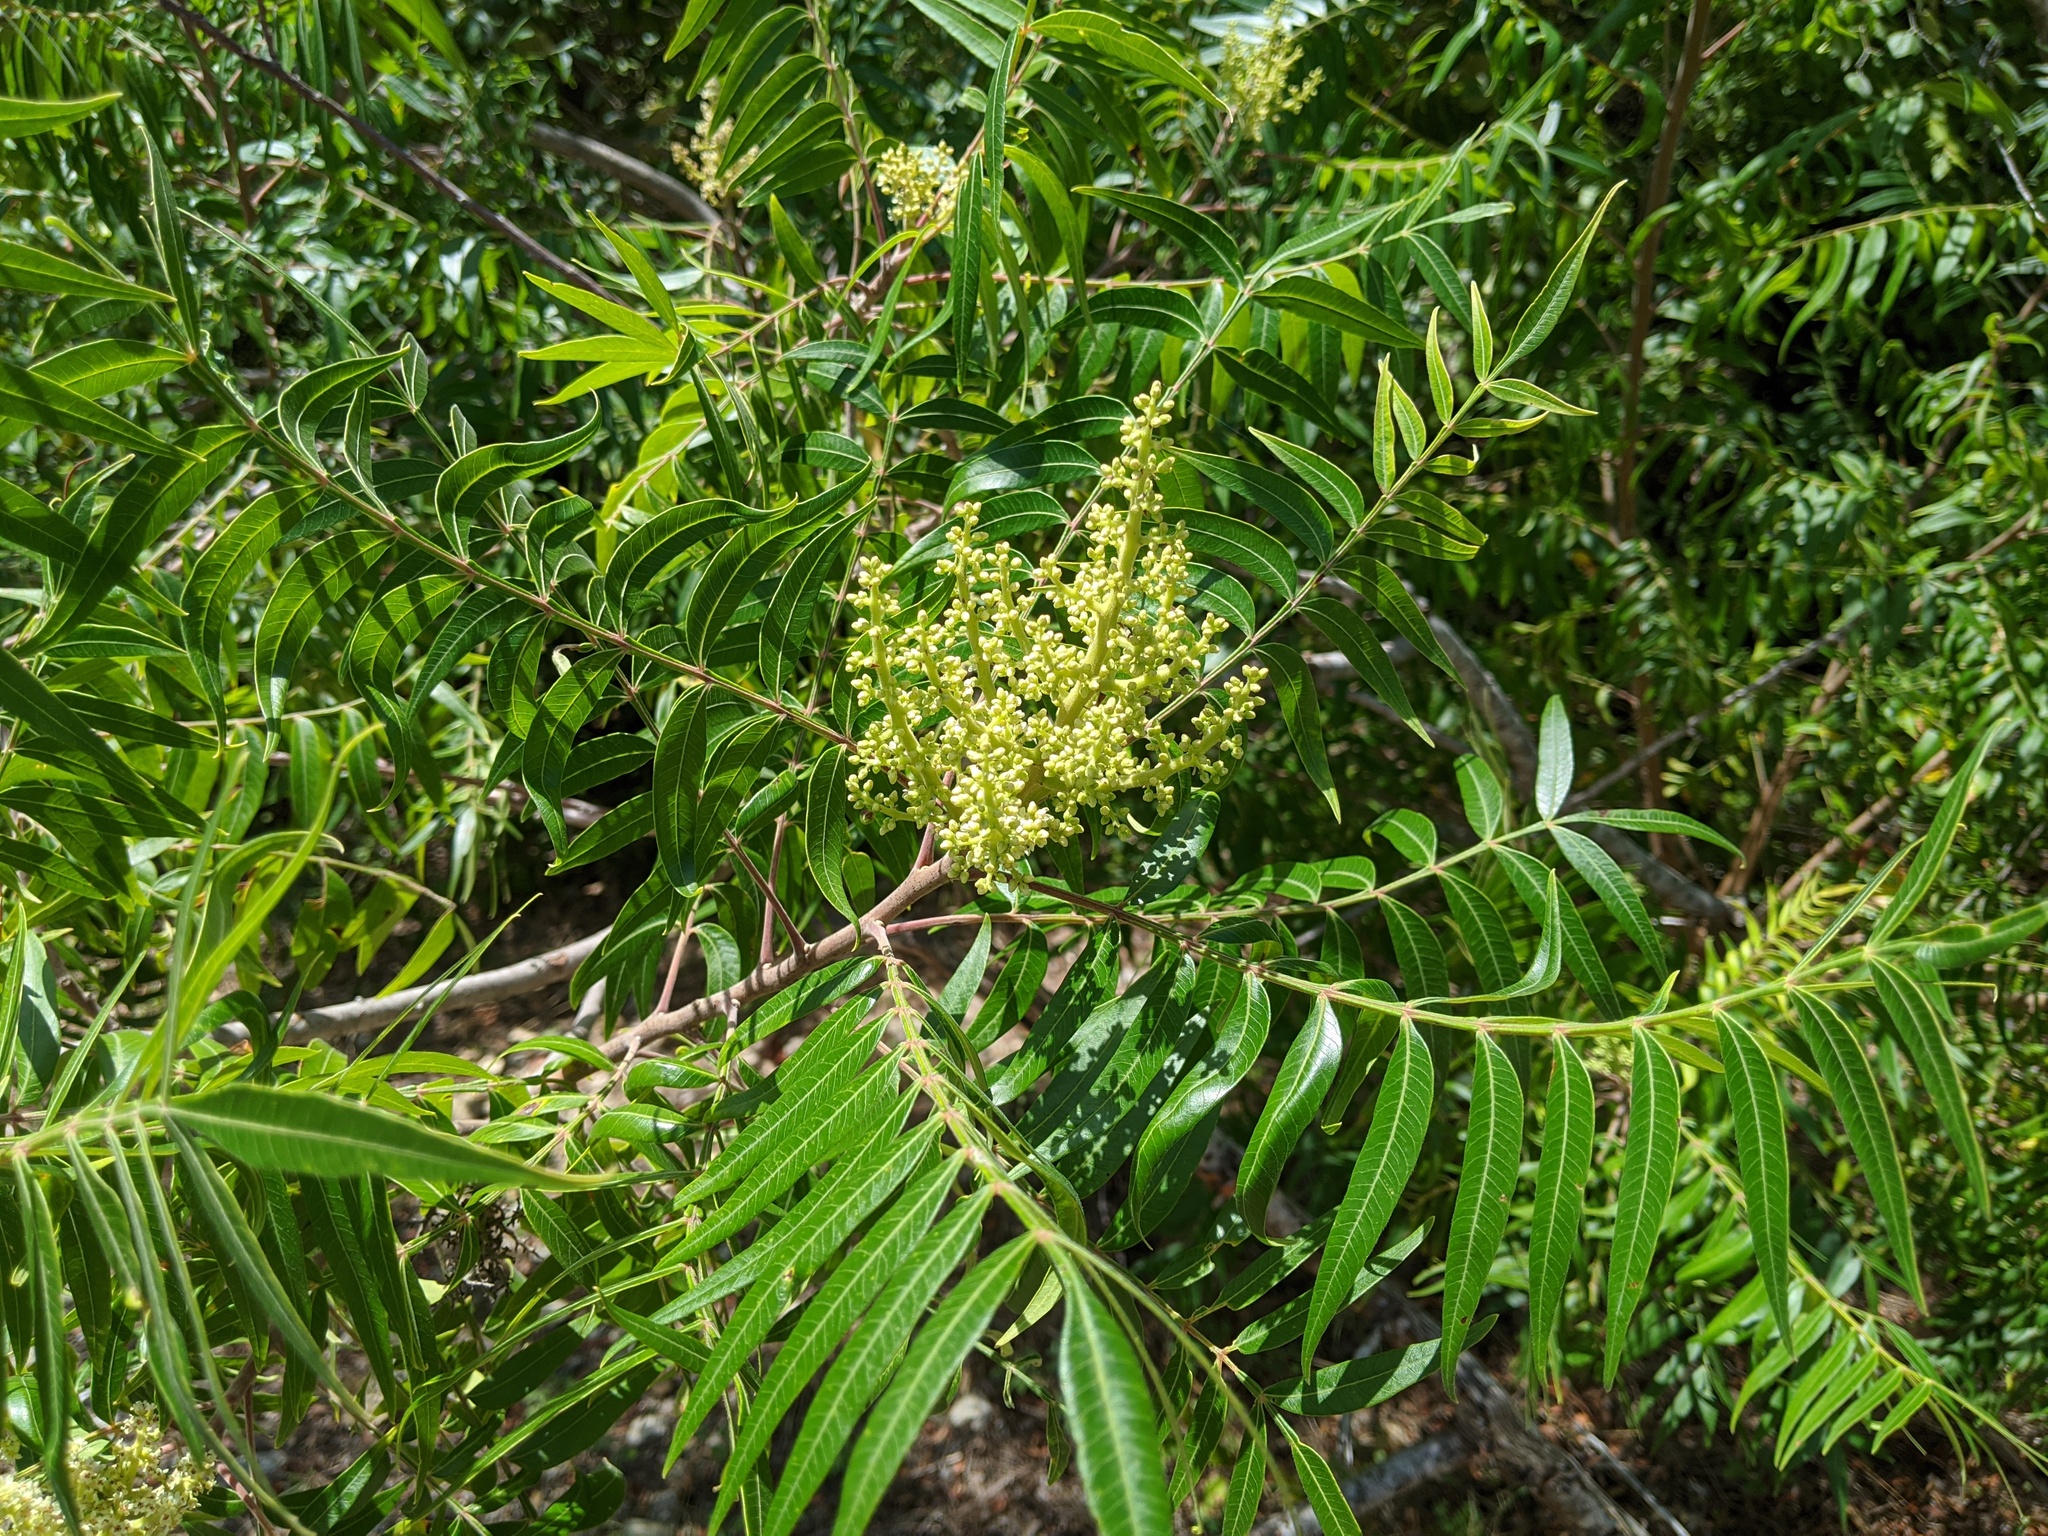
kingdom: Plantae
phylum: Tracheophyta
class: Magnoliopsida
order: Sapindales
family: Anacardiaceae
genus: Rhus
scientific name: Rhus lanceolata
